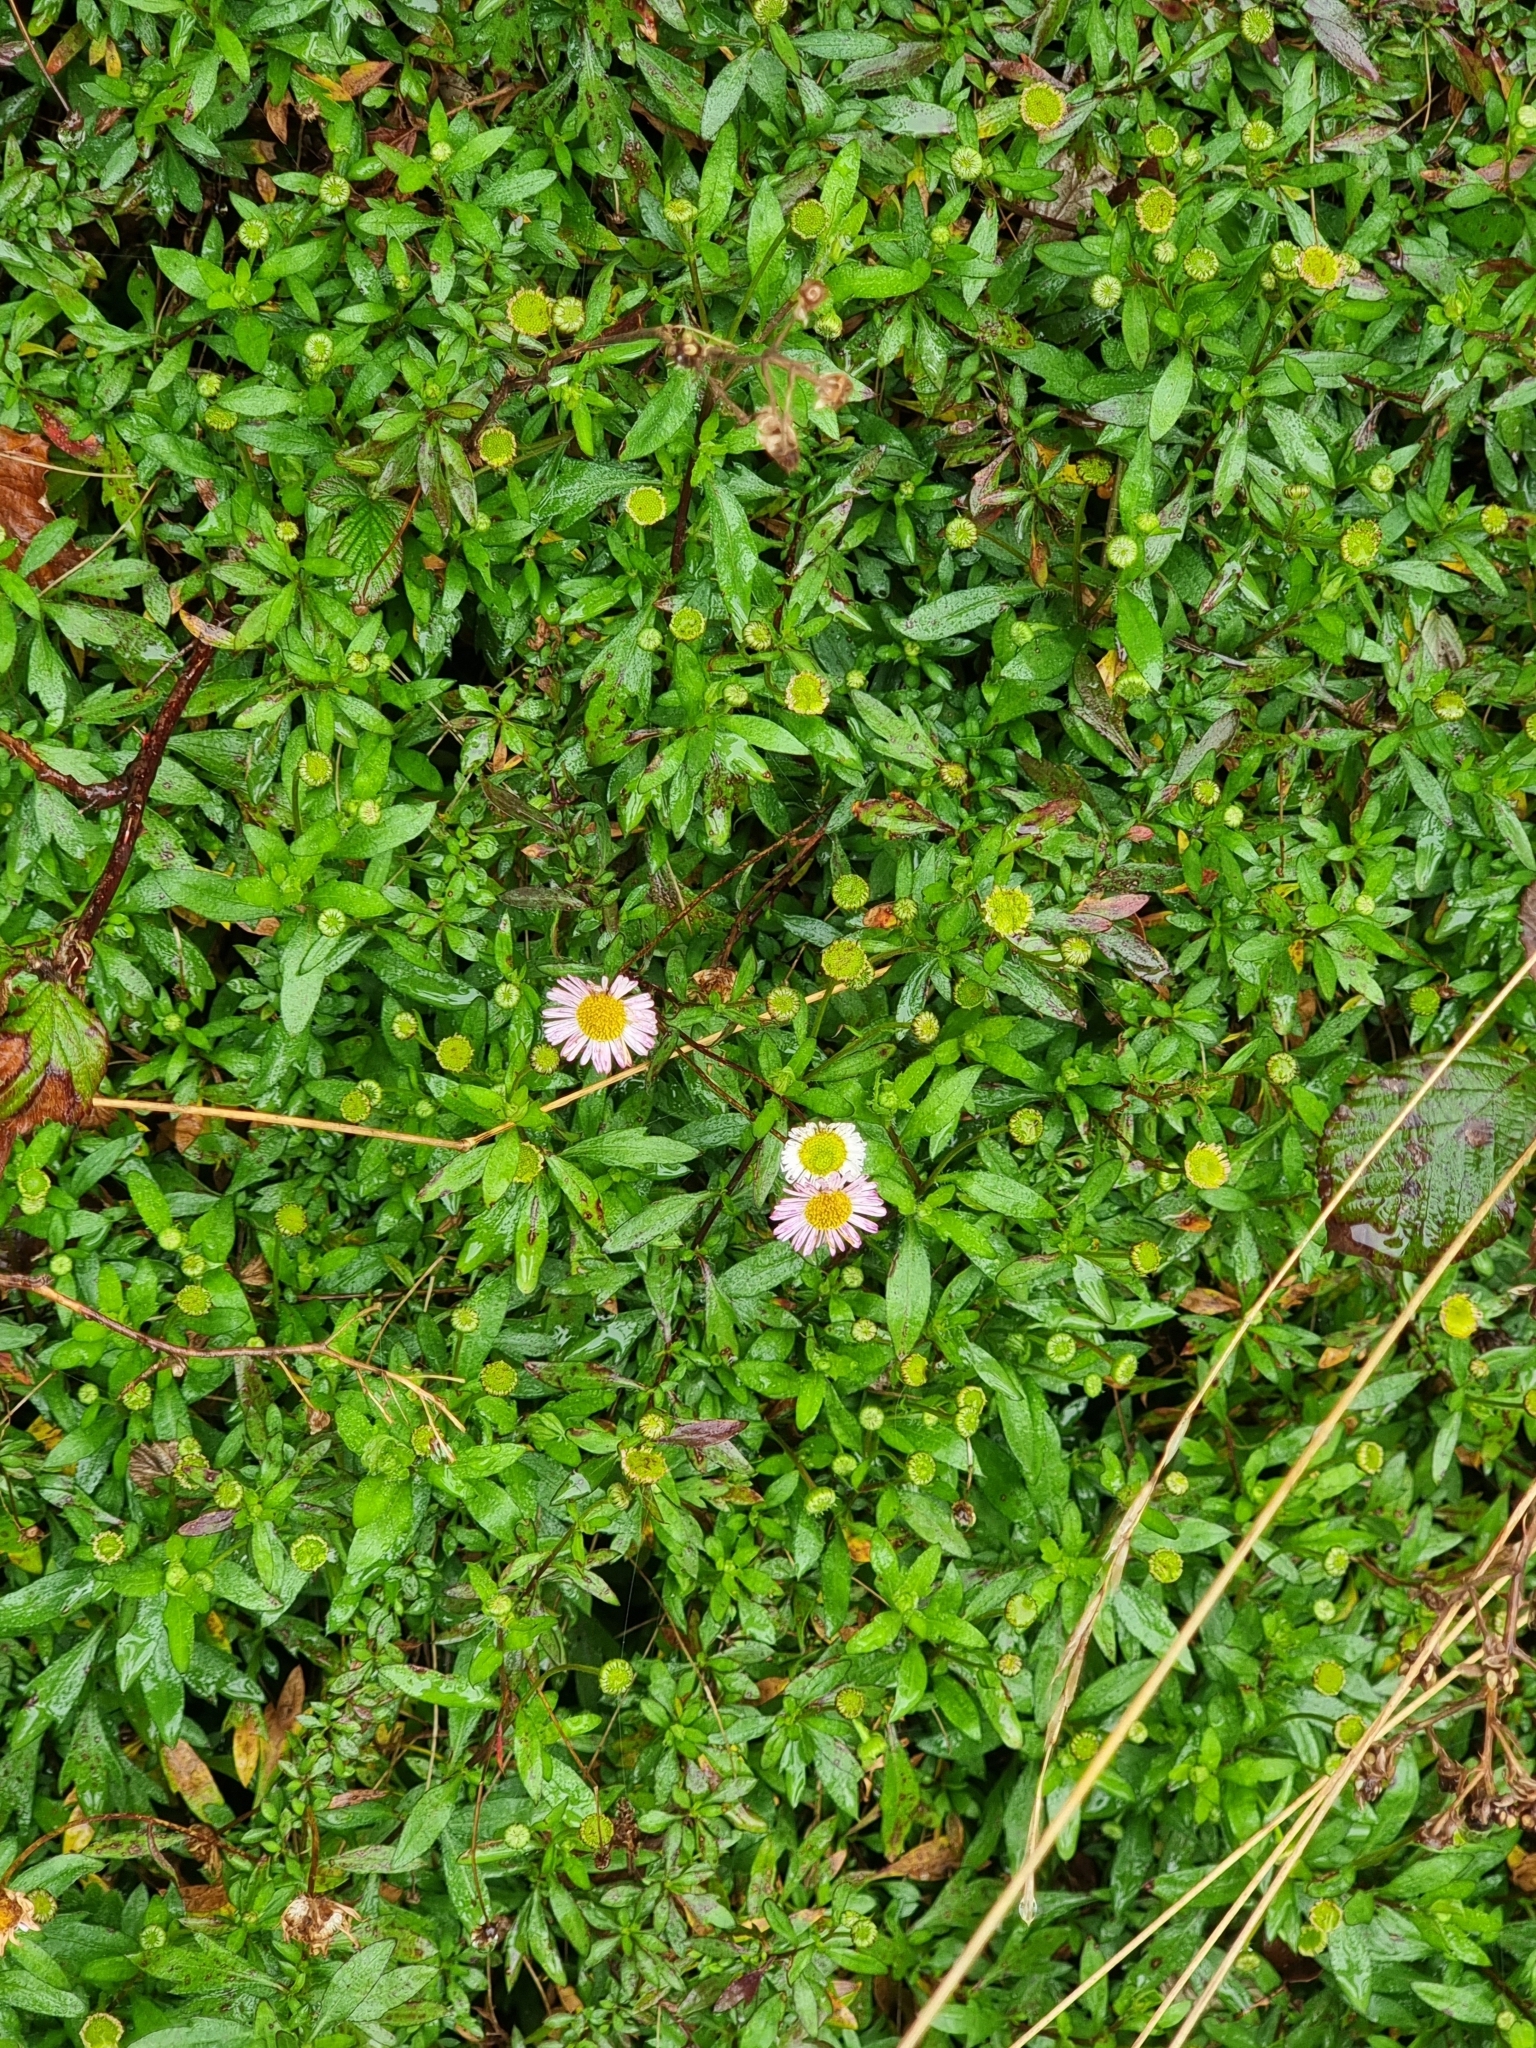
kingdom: Plantae
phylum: Tracheophyta
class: Magnoliopsida
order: Asterales
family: Asteraceae
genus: Erigeron
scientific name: Erigeron karvinskianus
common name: Mexican fleabane
